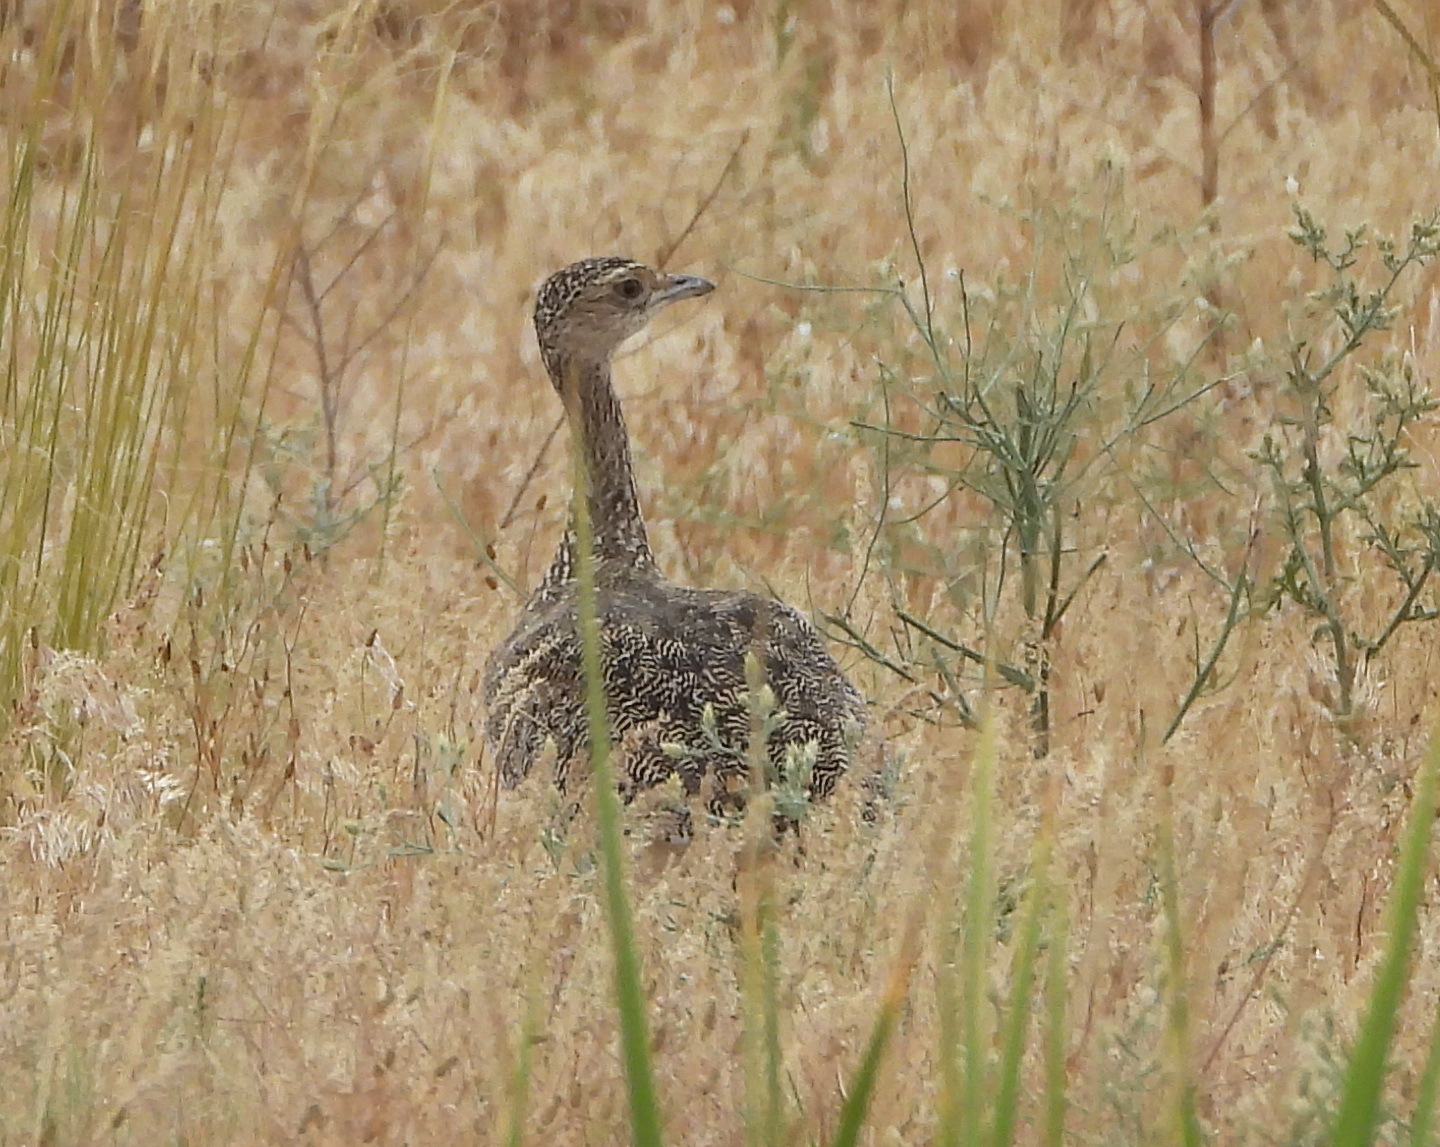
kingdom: Animalia
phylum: Chordata
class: Aves
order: Otidiformes
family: Otididae
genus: Tetrax
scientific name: Tetrax tetrax
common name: Little bustard
